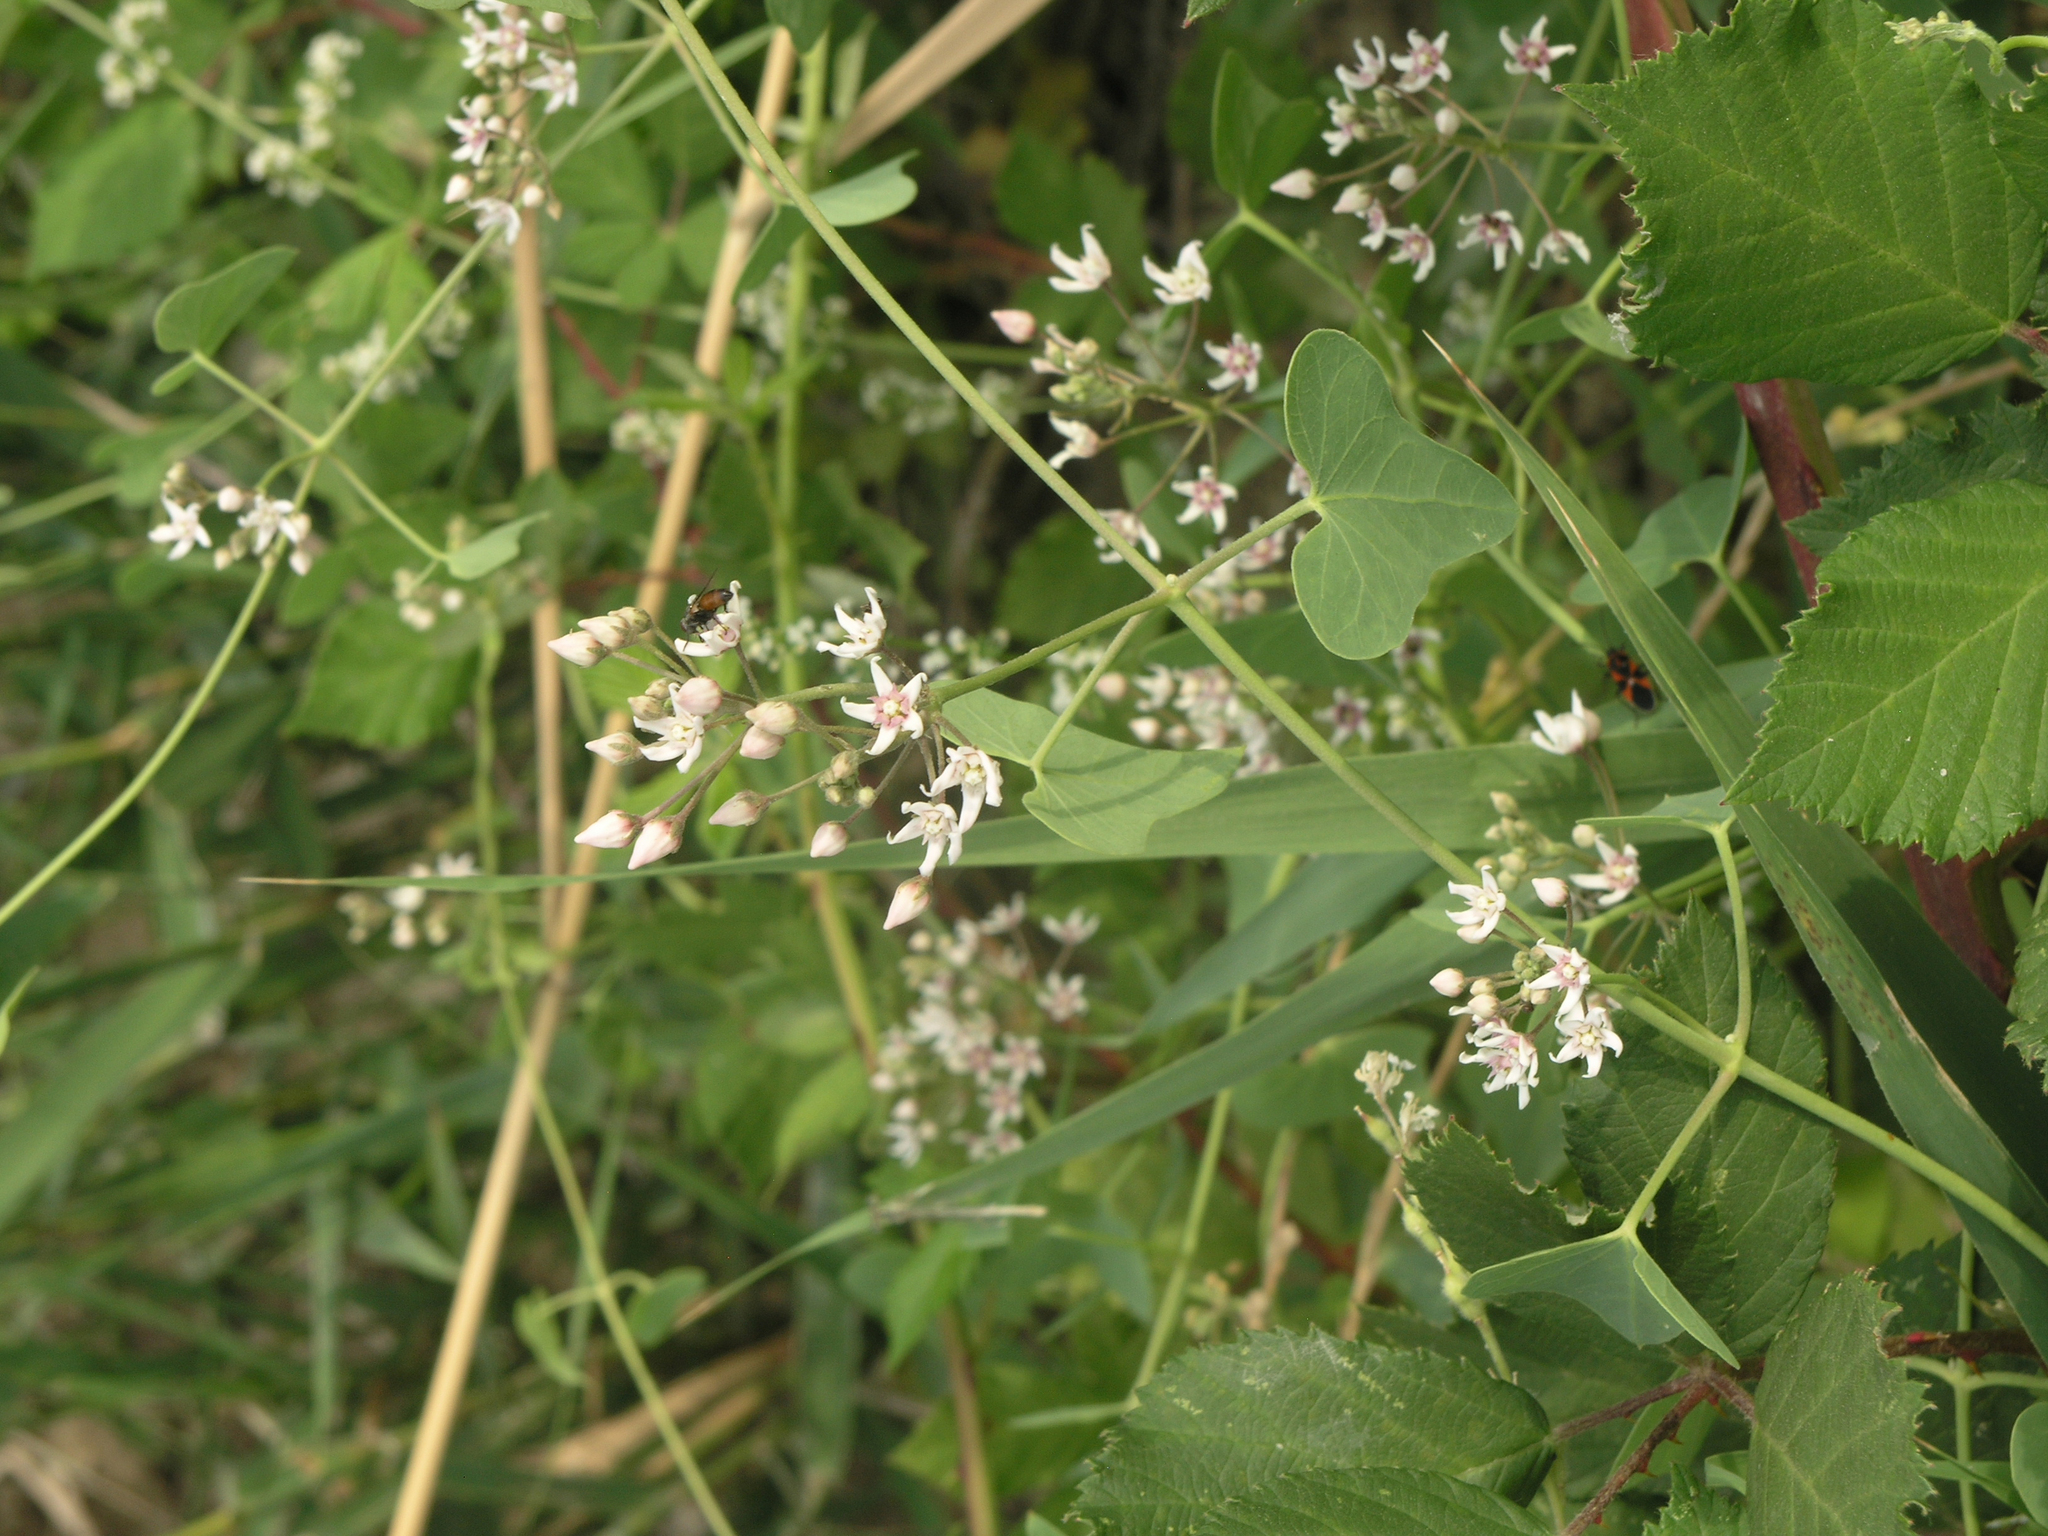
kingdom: Plantae
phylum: Tracheophyta
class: Magnoliopsida
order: Gentianales
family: Apocynaceae
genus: Cynanchum
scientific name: Cynanchum acutum
